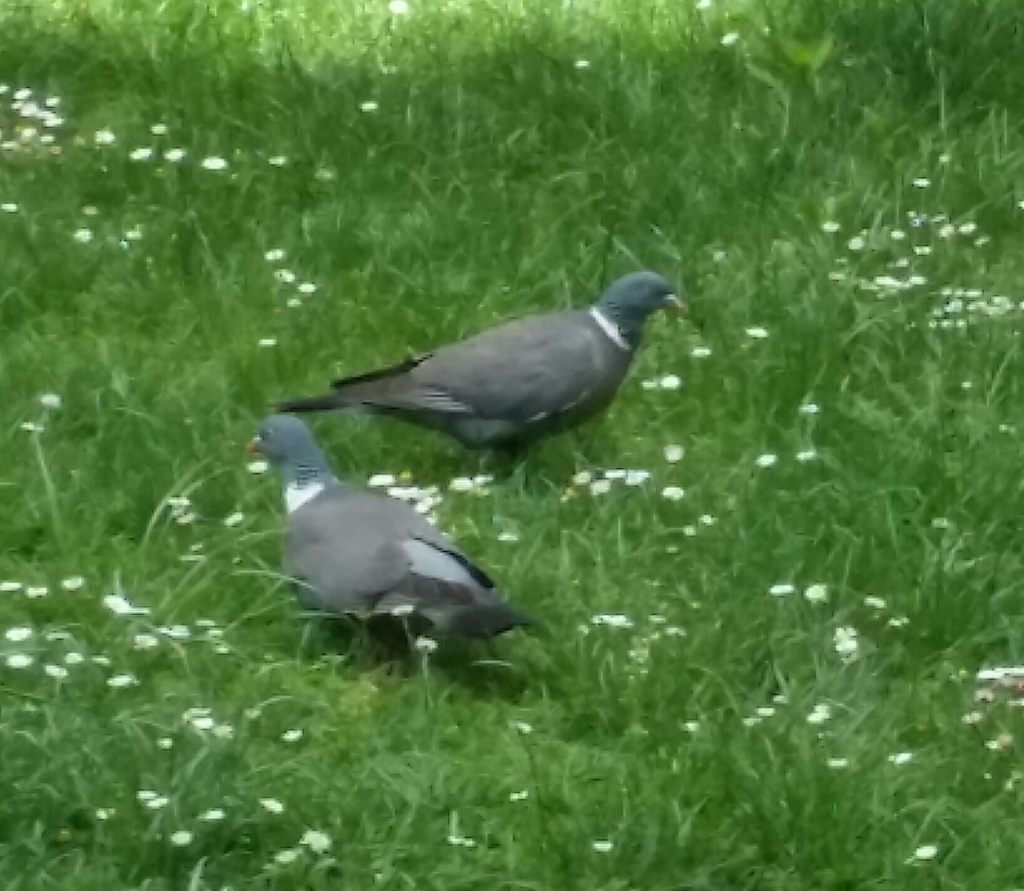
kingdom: Animalia
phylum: Chordata
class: Aves
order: Columbiformes
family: Columbidae
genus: Columba
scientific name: Columba palumbus
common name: Common wood pigeon
